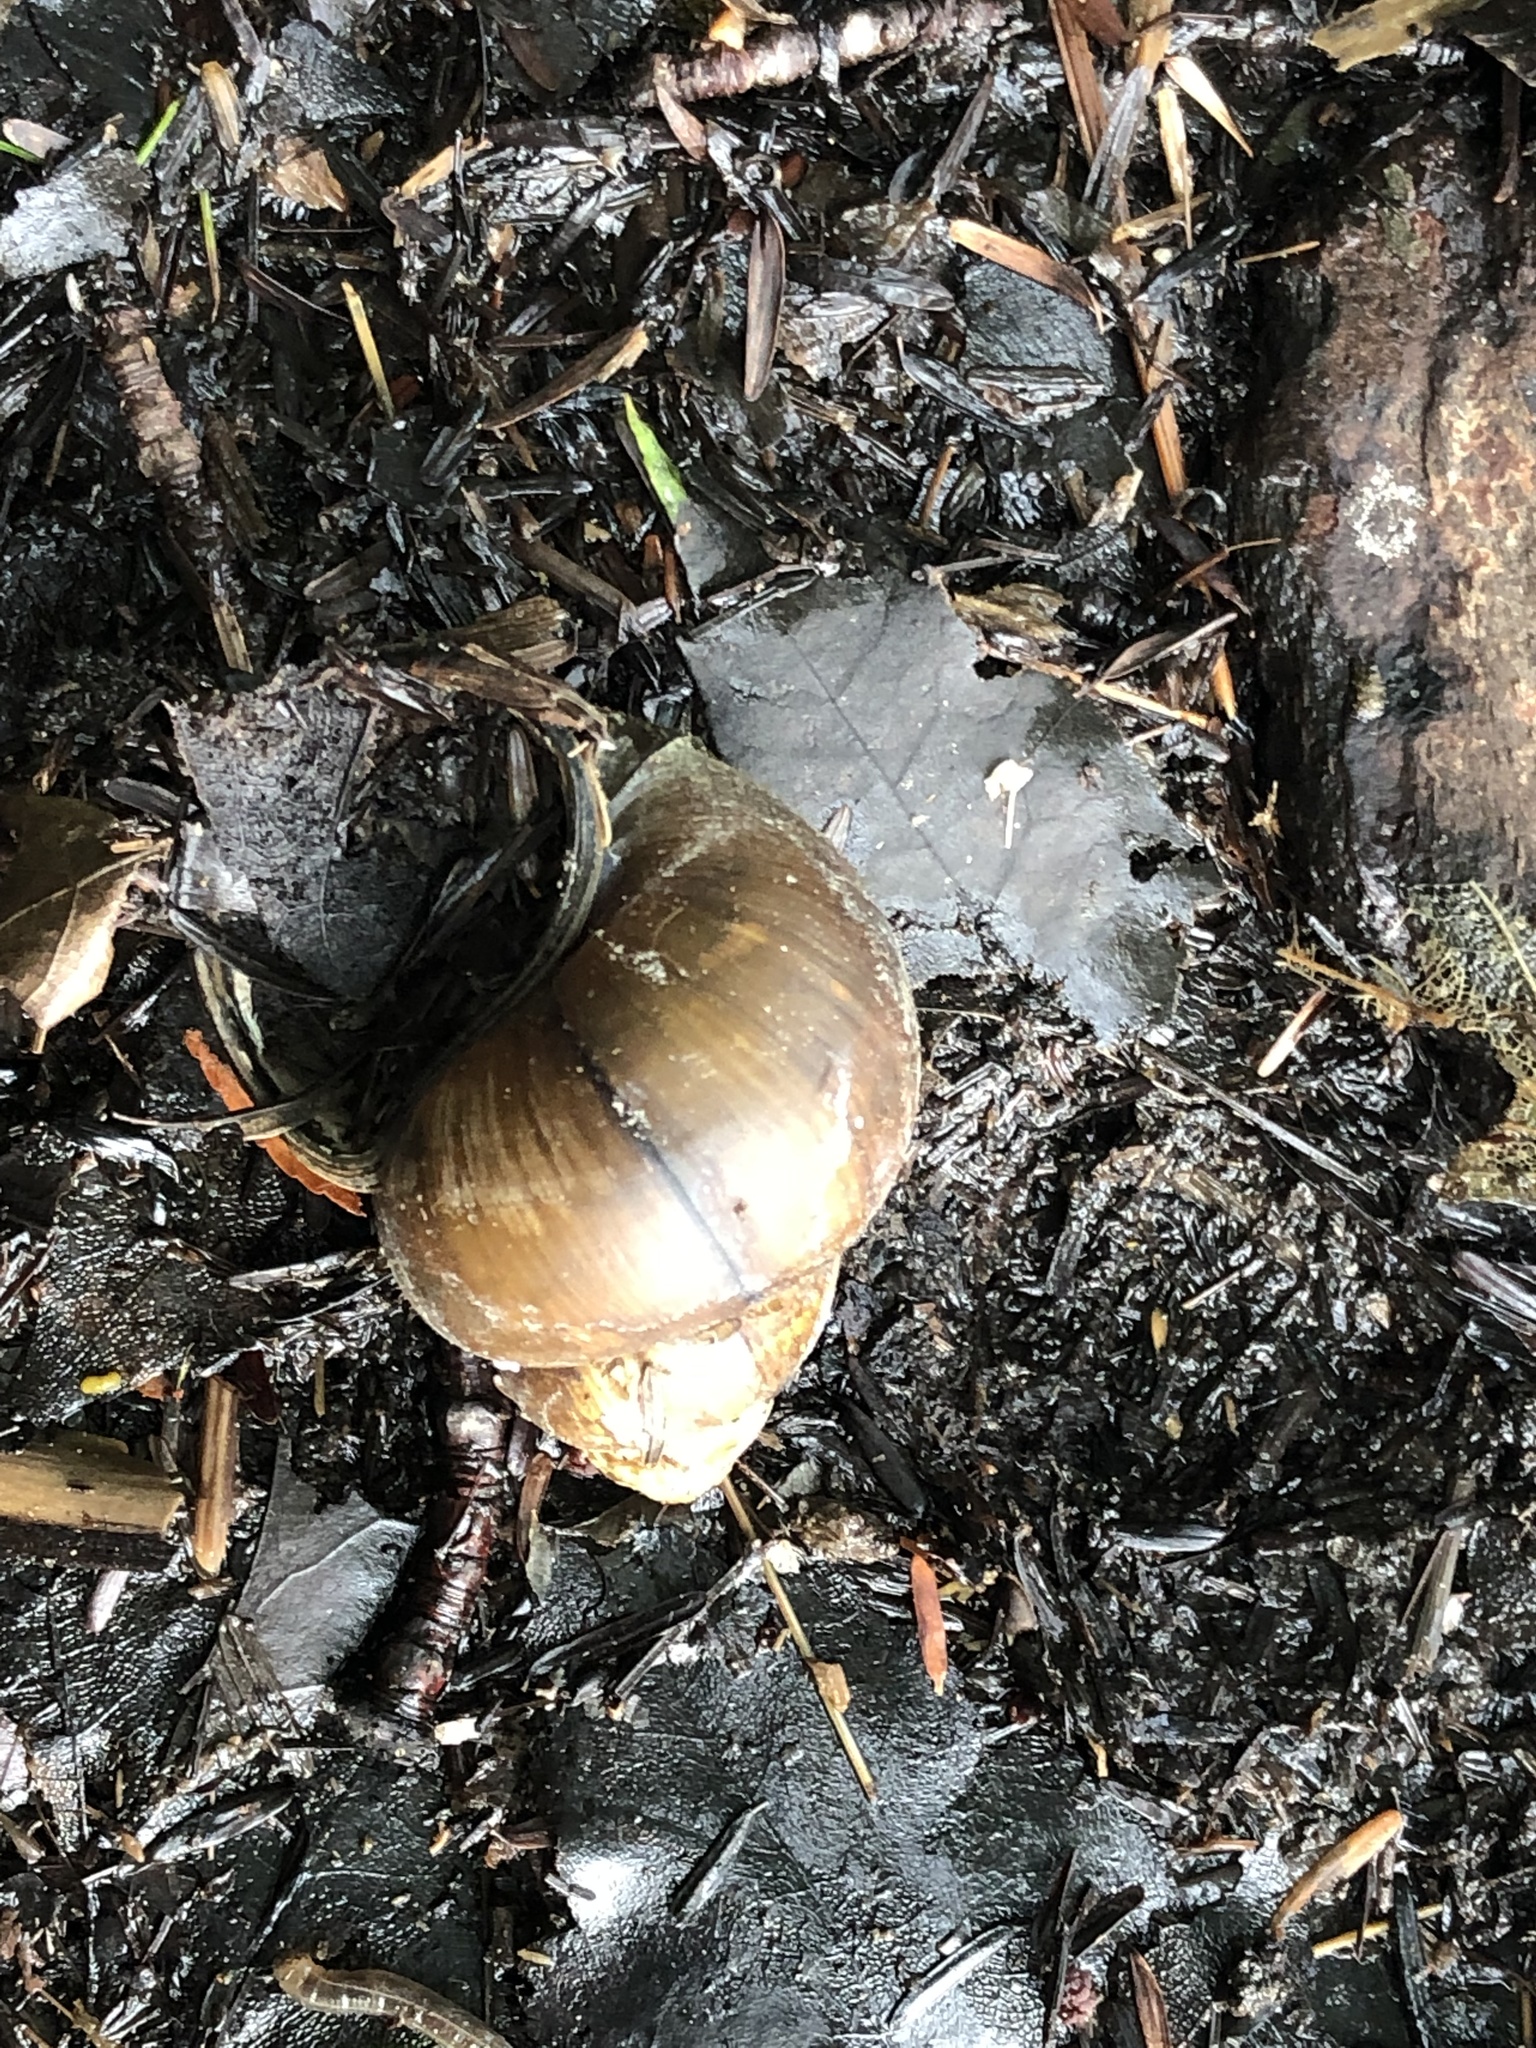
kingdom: Animalia
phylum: Mollusca
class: Gastropoda
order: Architaenioglossa
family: Viviparidae
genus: Cipangopaludina
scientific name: Cipangopaludina chinensis
